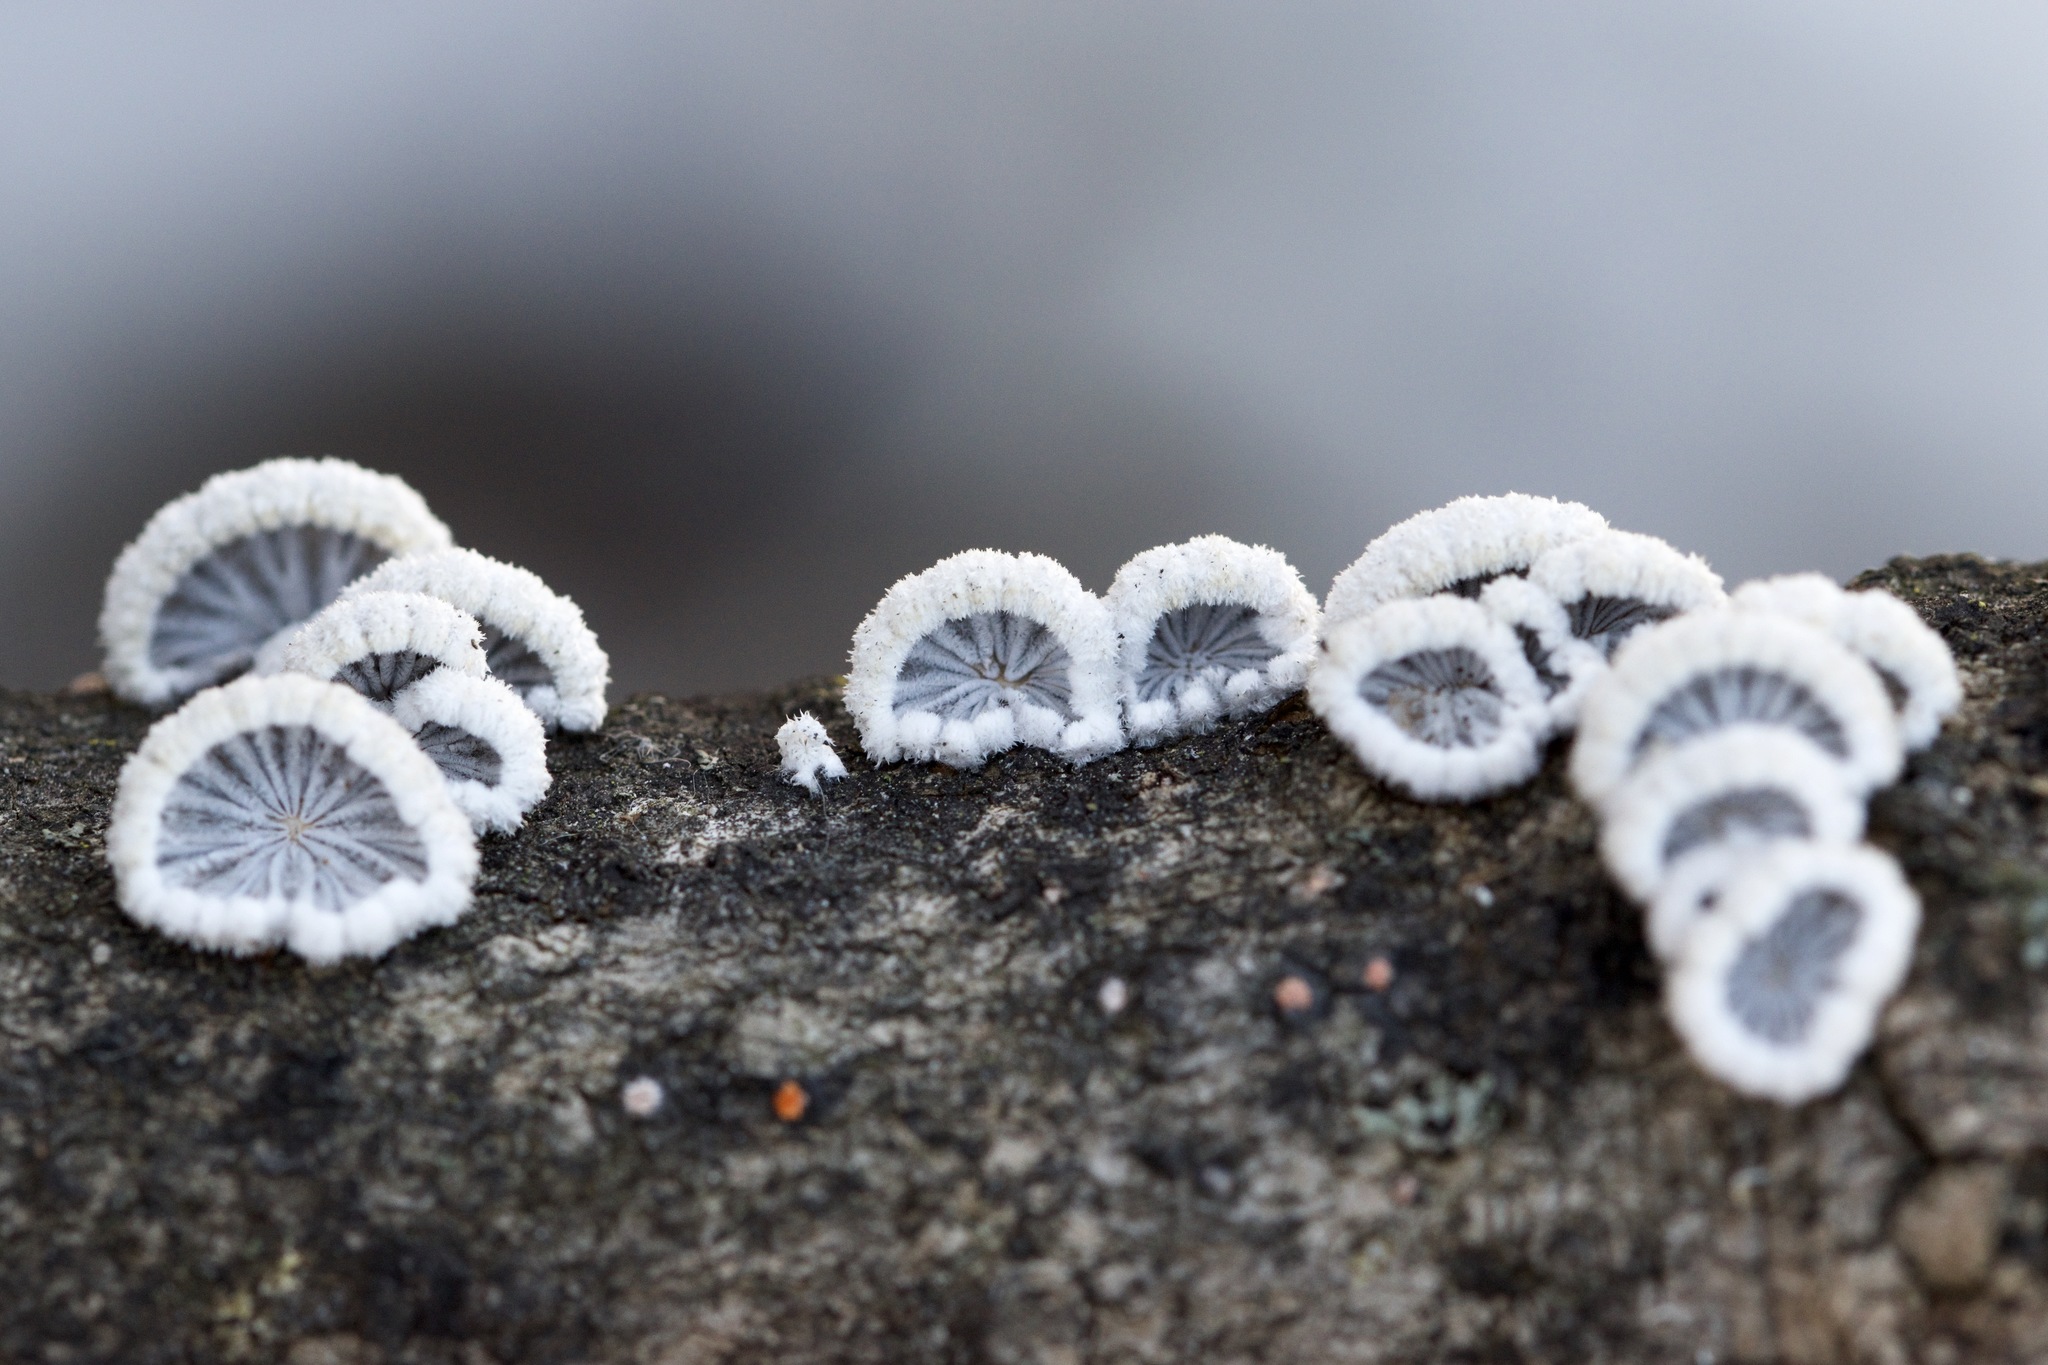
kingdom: Fungi
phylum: Basidiomycota
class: Agaricomycetes
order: Agaricales
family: Schizophyllaceae
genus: Schizophyllum
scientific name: Schizophyllum commune
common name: Common porecrust
